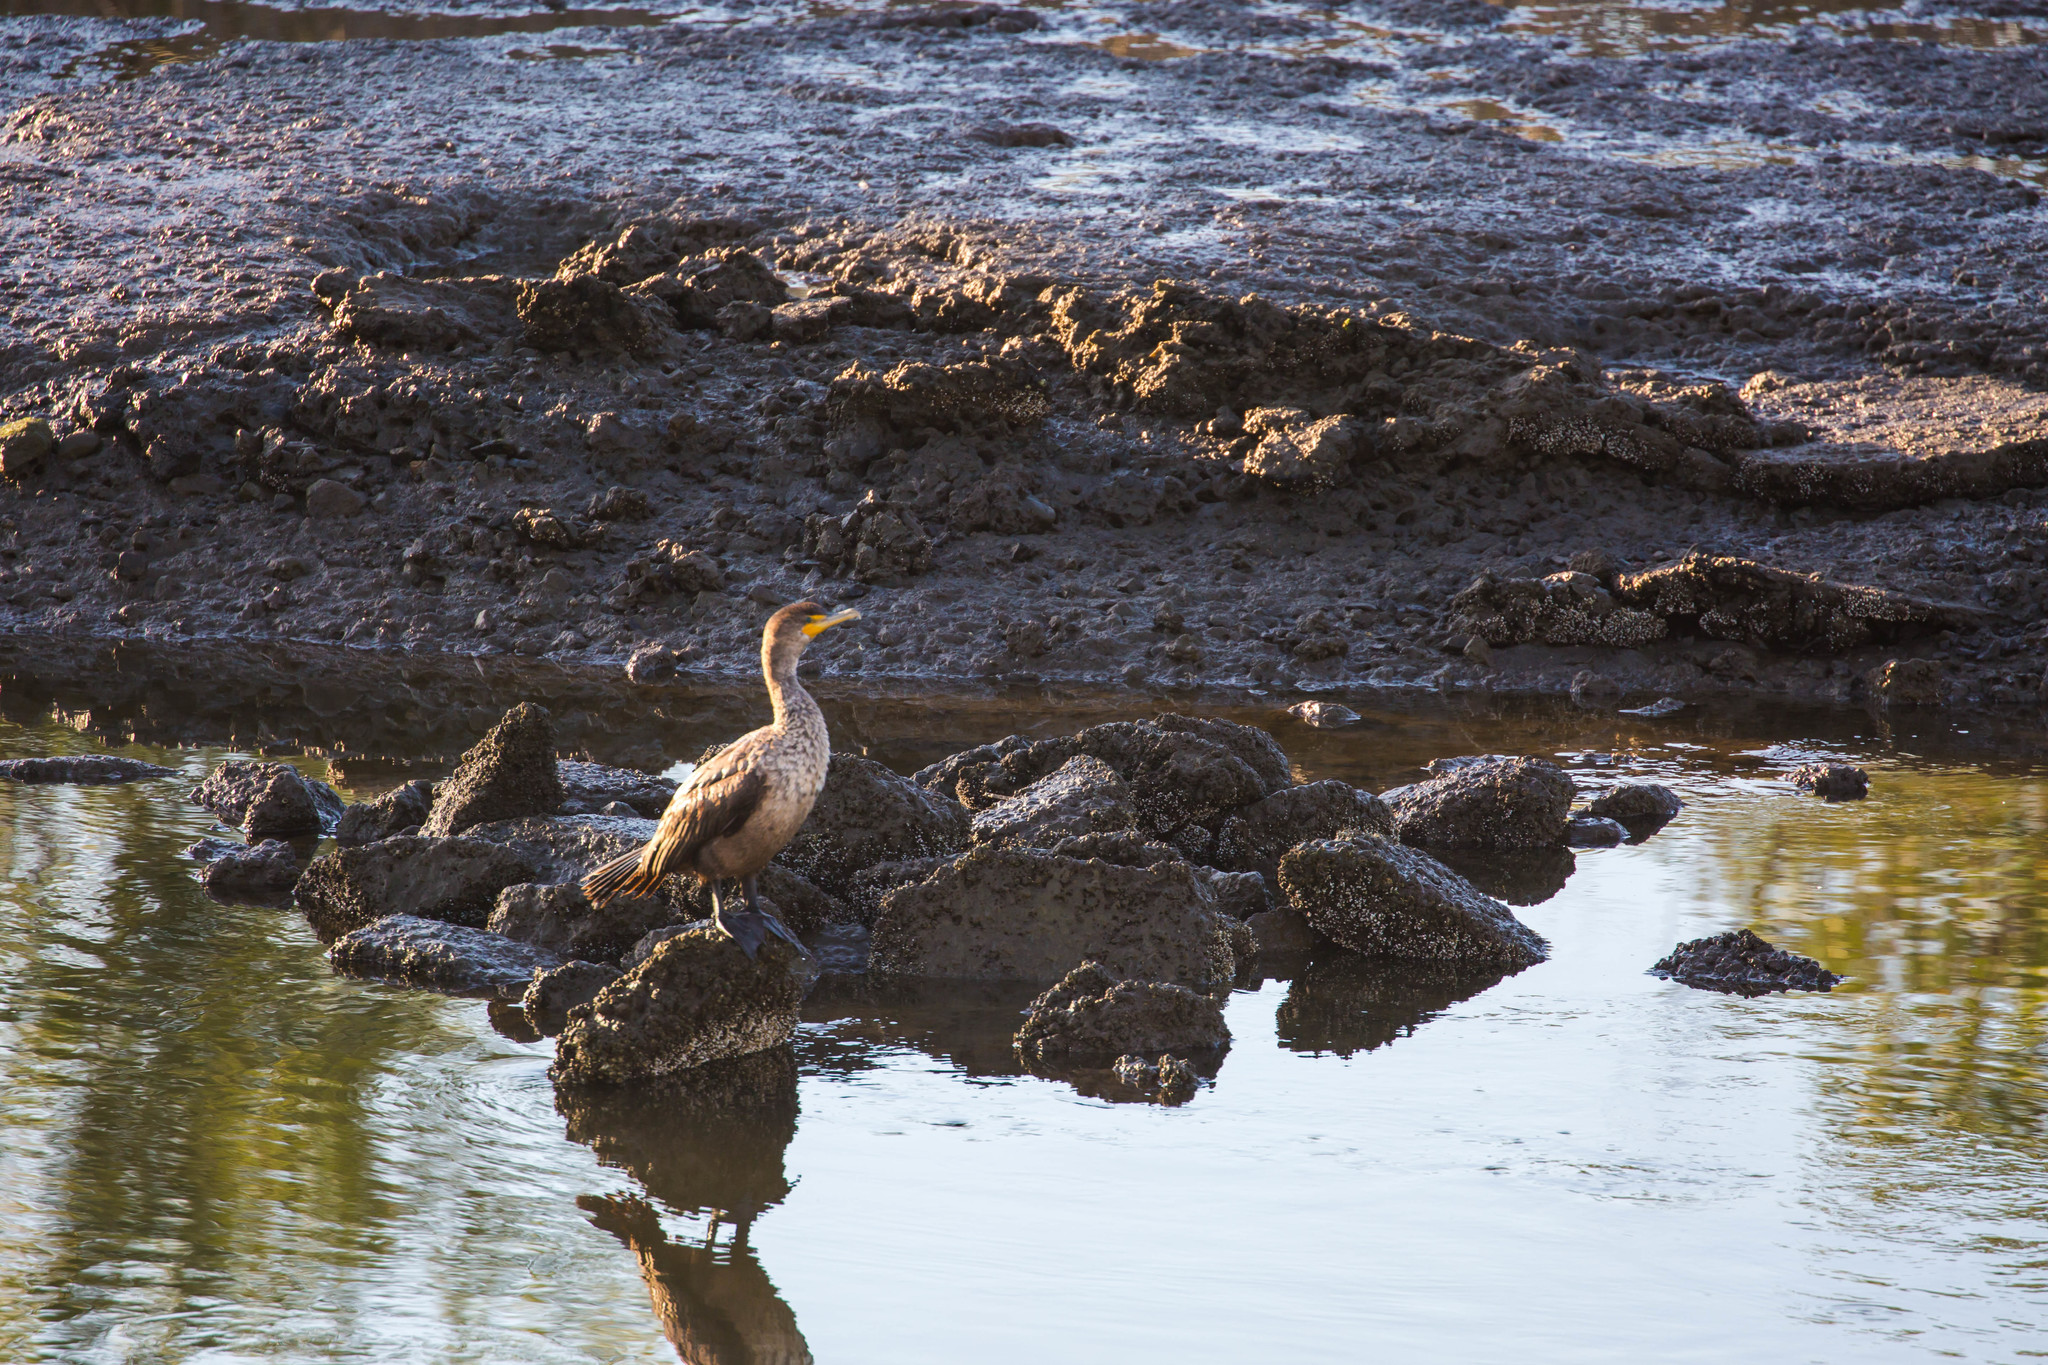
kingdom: Animalia
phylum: Chordata
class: Aves
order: Suliformes
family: Phalacrocoracidae
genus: Phalacrocorax
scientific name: Phalacrocorax auritus
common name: Double-crested cormorant
